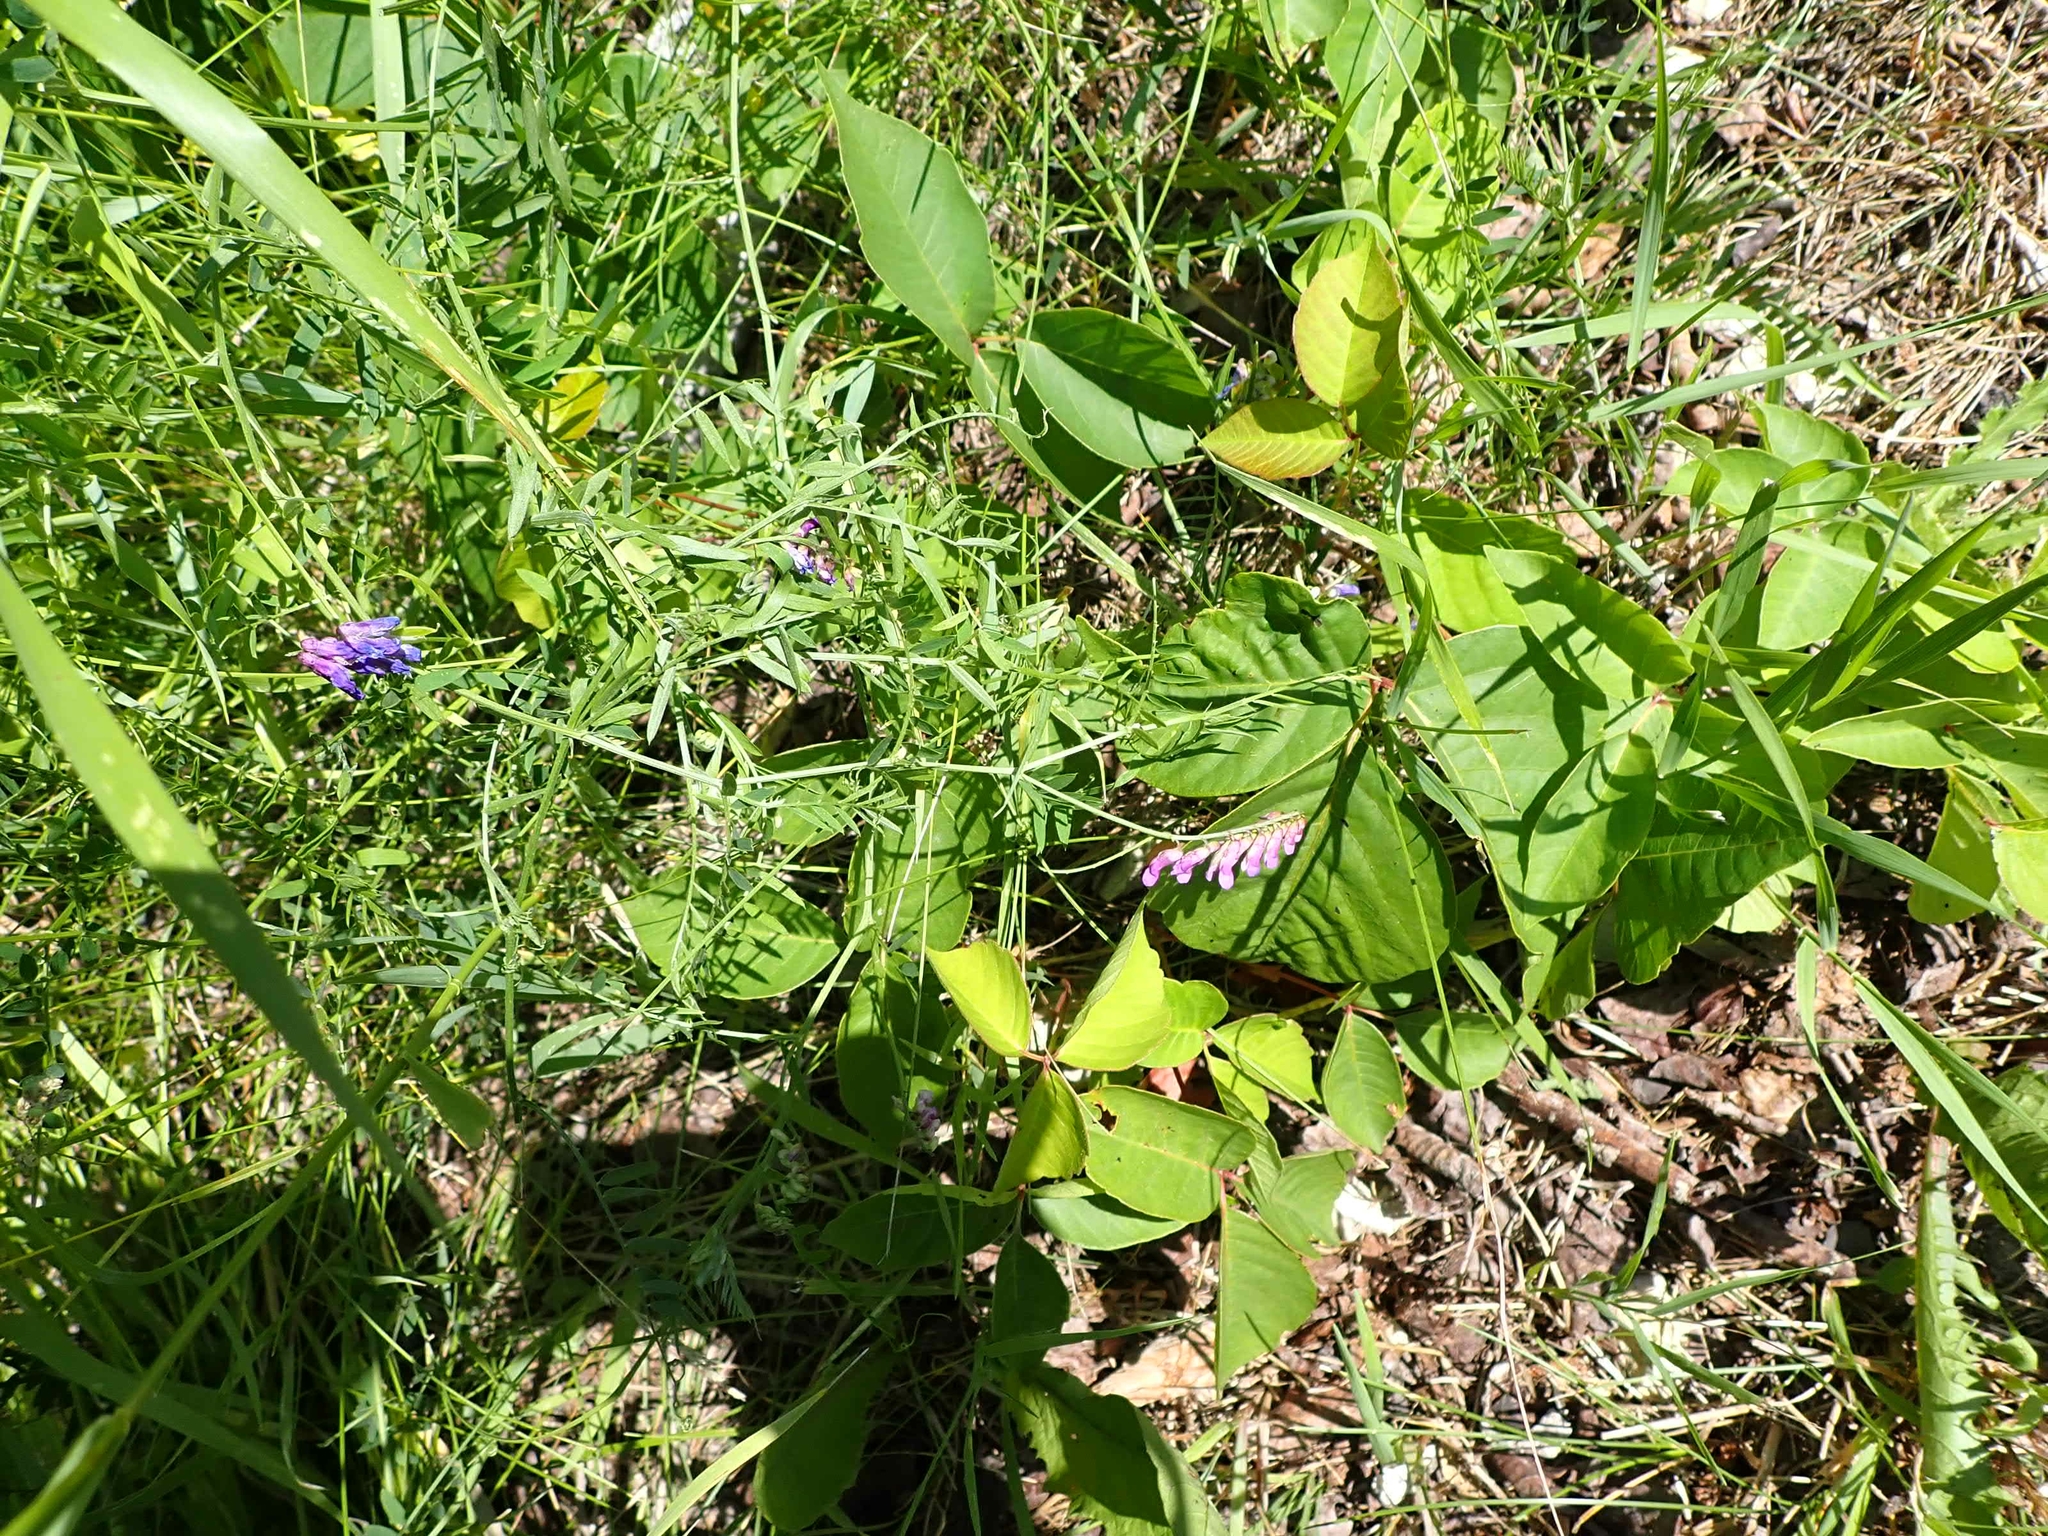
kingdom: Plantae
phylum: Tracheophyta
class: Magnoliopsida
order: Fabales
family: Fabaceae
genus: Vicia
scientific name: Vicia cracca
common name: Bird vetch
